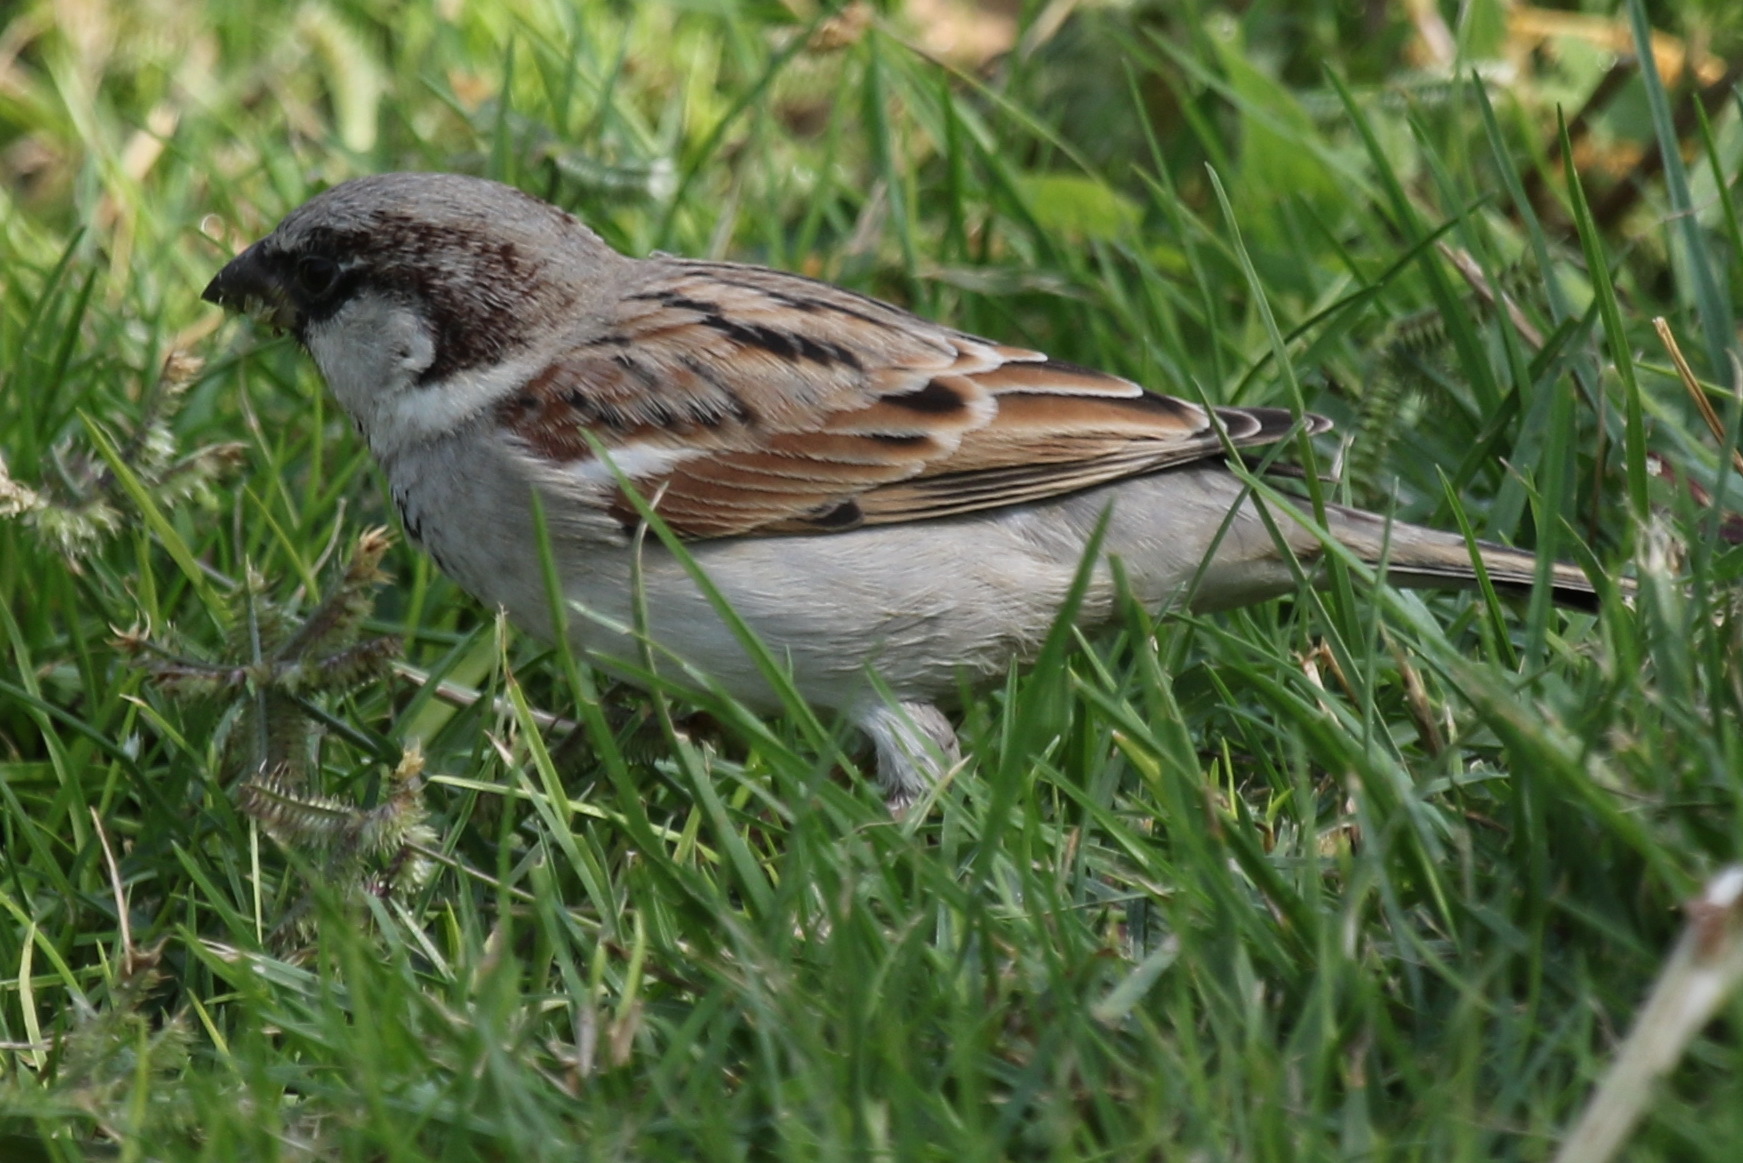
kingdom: Animalia
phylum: Chordata
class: Aves
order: Passeriformes
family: Passeridae
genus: Passer
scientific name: Passer domesticus
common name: House sparrow
